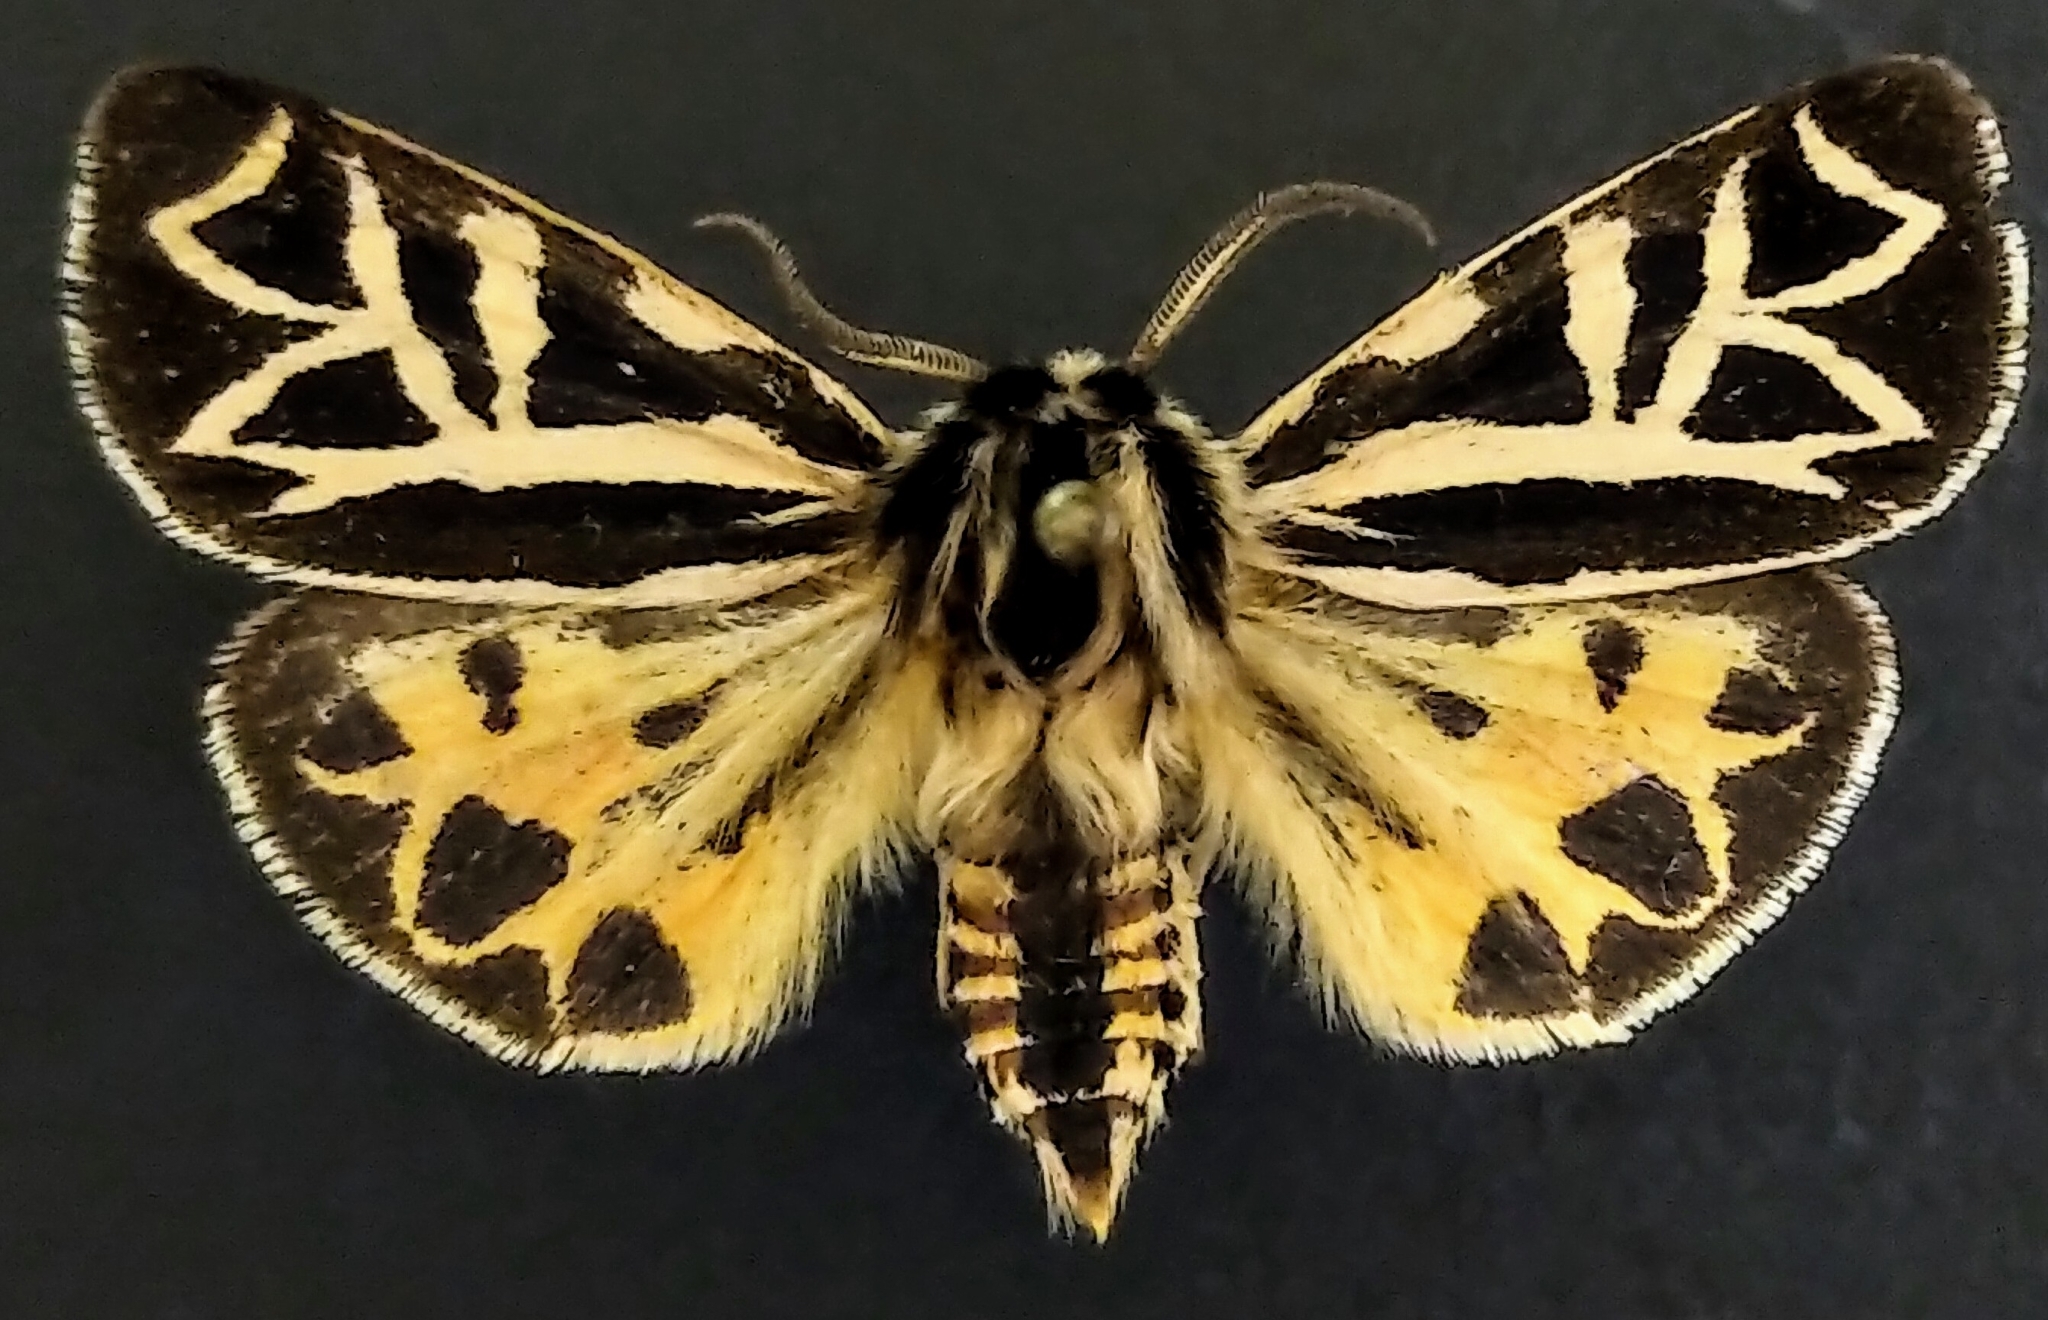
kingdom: Animalia
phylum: Arthropoda
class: Insecta
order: Lepidoptera
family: Erebidae
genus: Apantesis
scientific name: Apantesis
